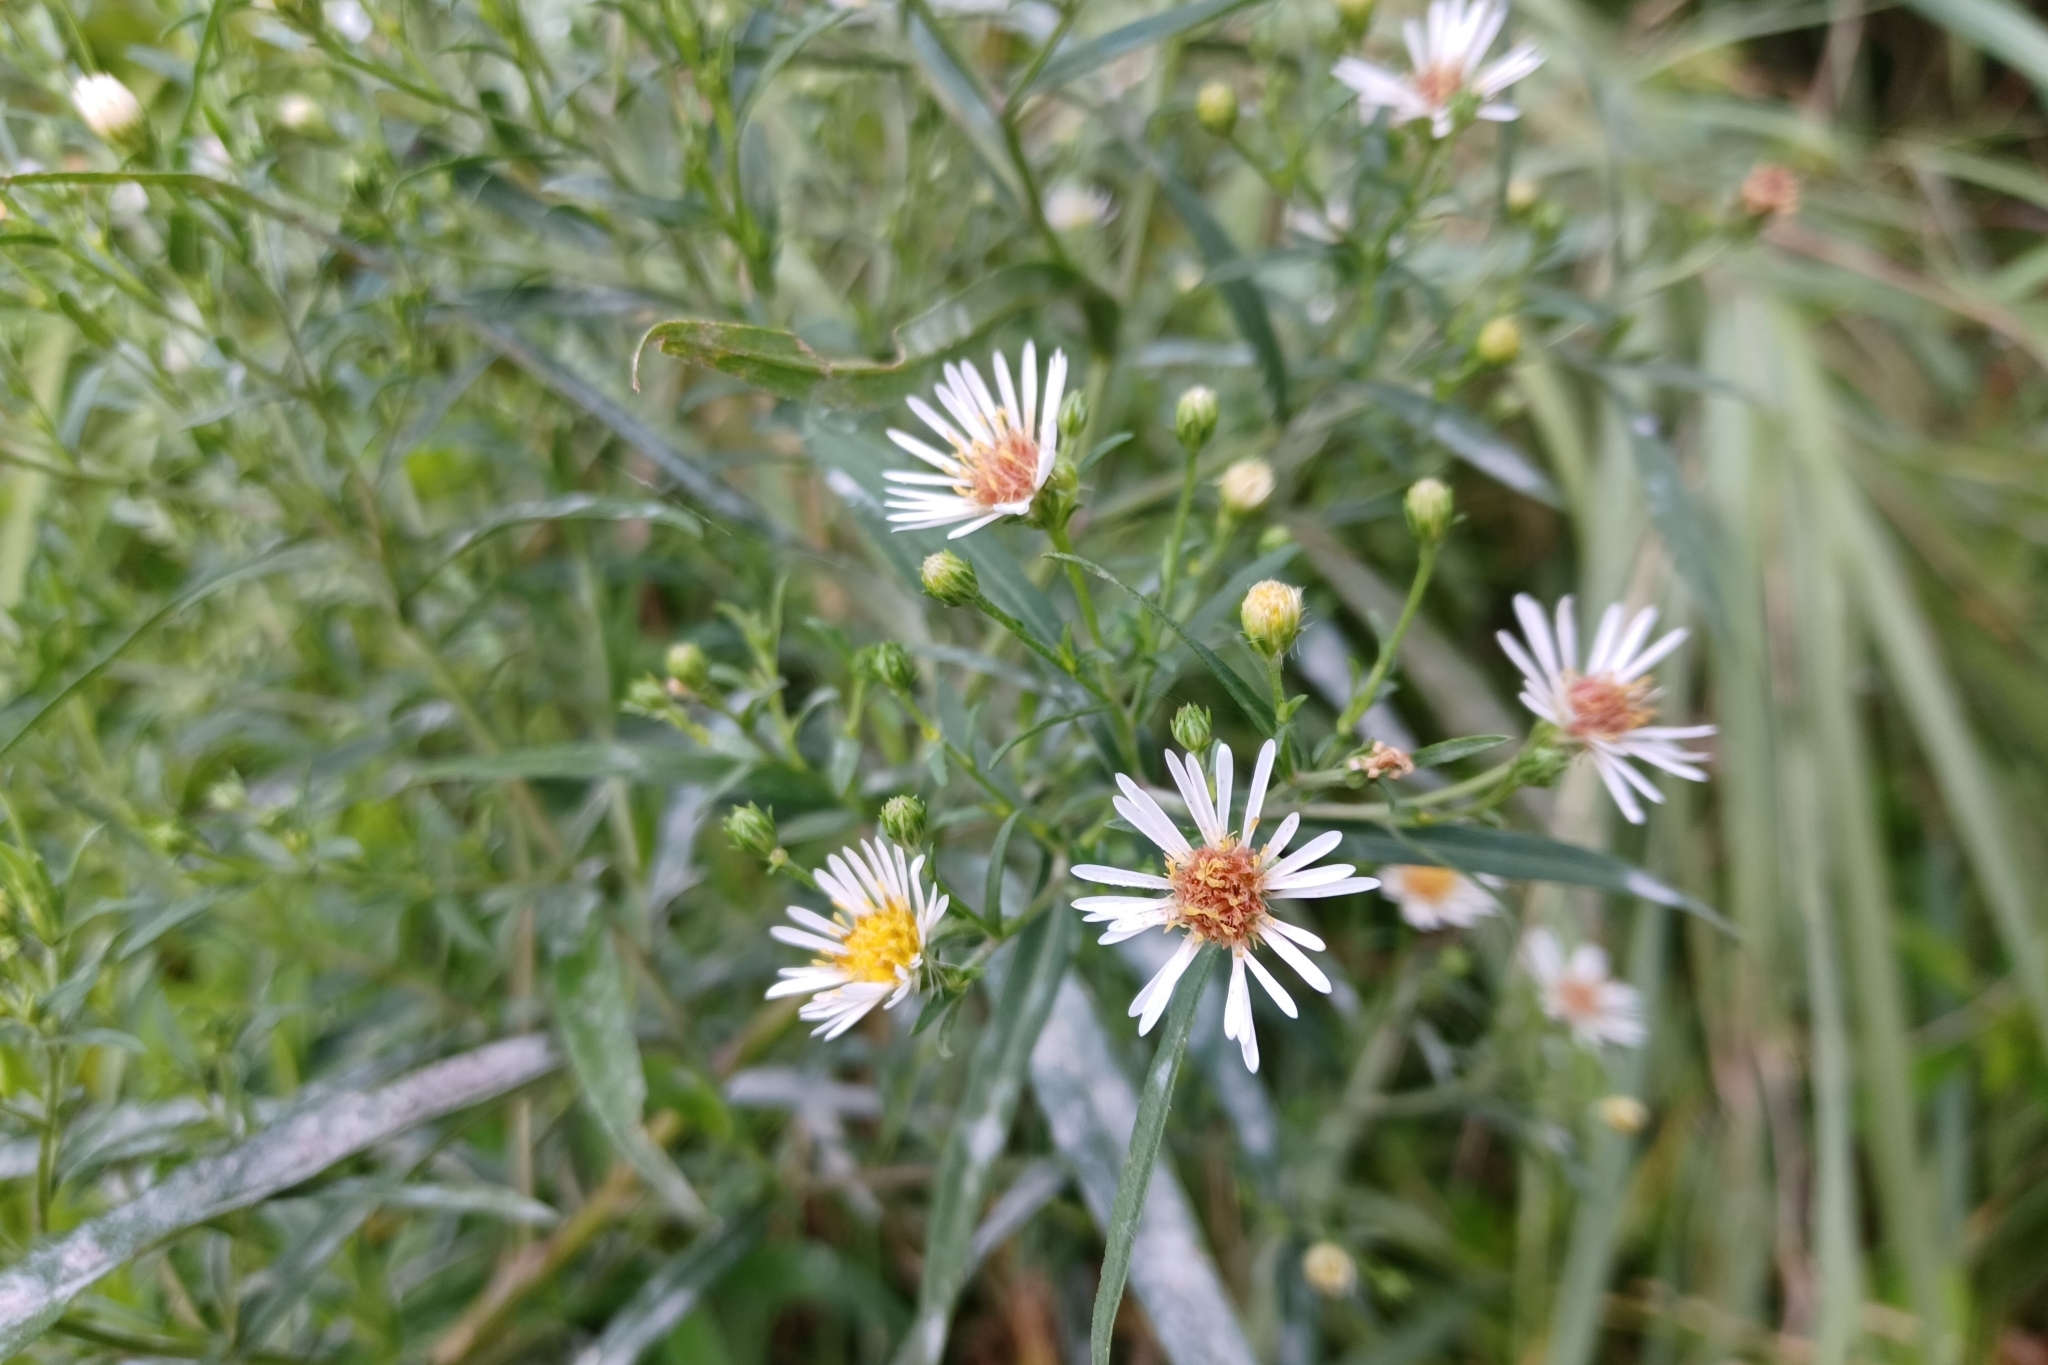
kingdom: Plantae
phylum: Tracheophyta
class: Magnoliopsida
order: Asterales
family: Asteraceae
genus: Symphyotrichum
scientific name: Symphyotrichum lanceolatum
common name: Panicled aster
